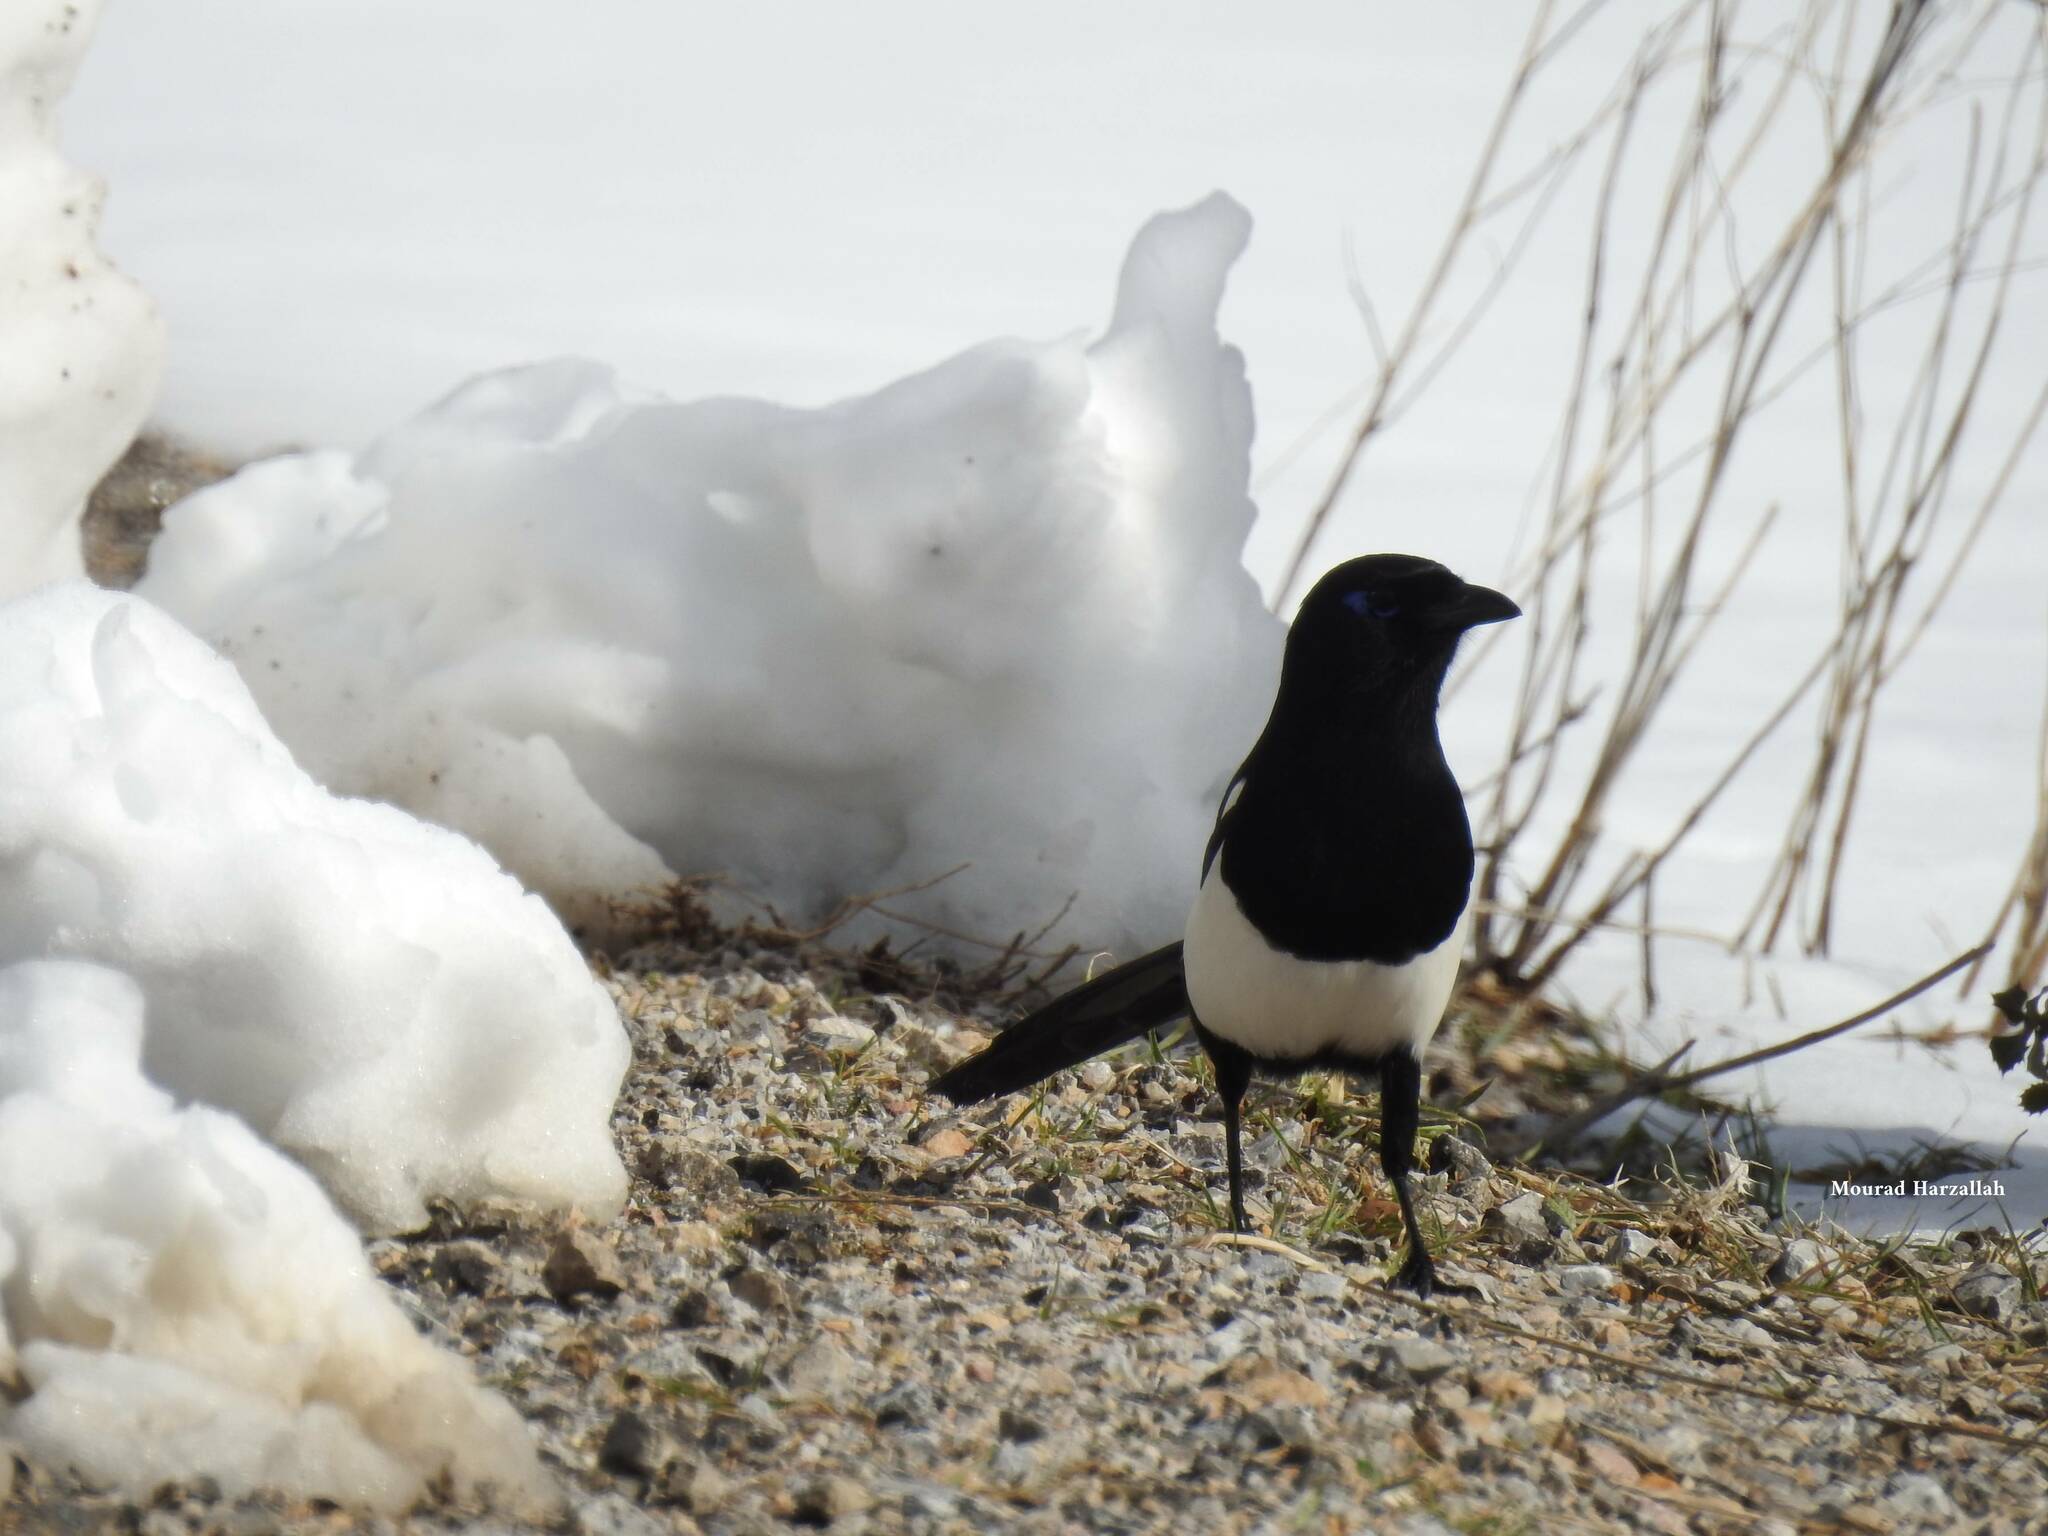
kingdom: Animalia
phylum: Chordata
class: Aves
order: Passeriformes
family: Corvidae
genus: Pica
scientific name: Pica mauritanica
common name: Maghreb magpie
